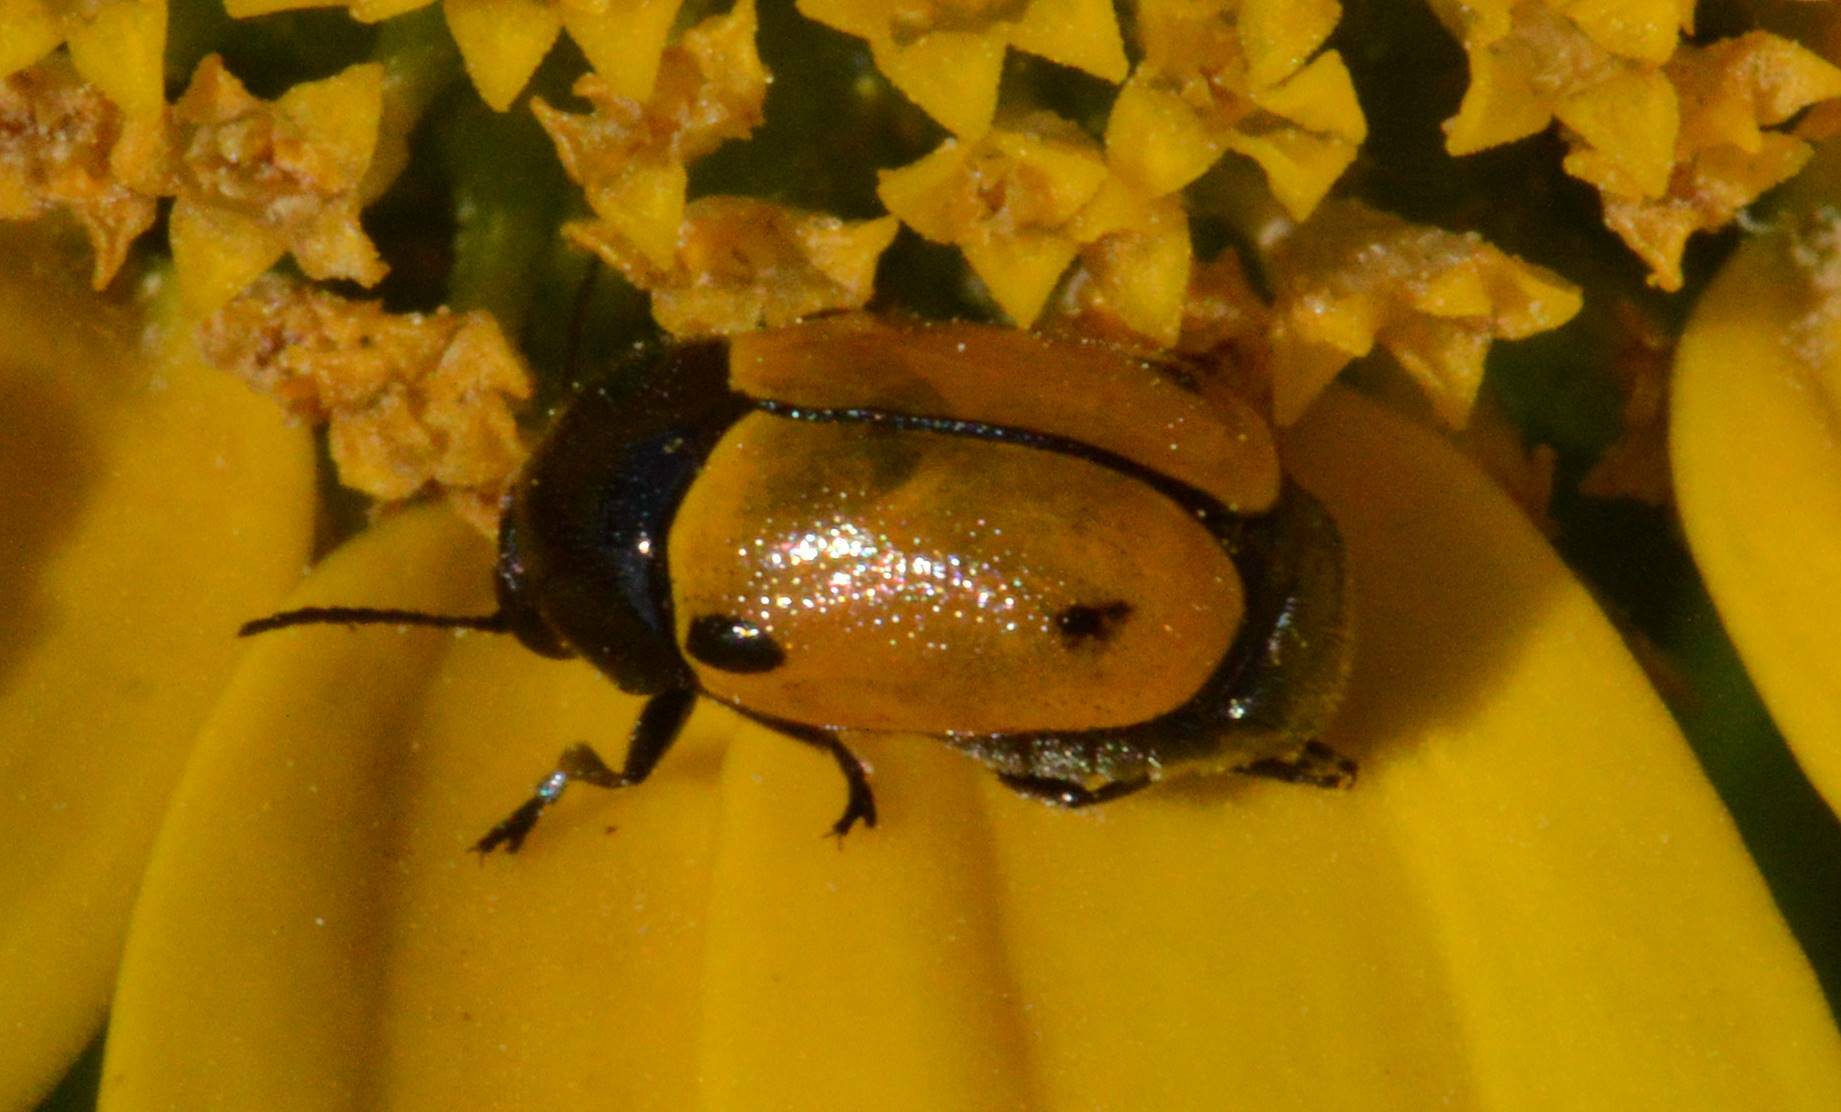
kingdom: Animalia
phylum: Arthropoda
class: Insecta
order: Coleoptera
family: Chrysomelidae
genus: Cryptocephalus
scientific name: Cryptocephalus rugicollis
